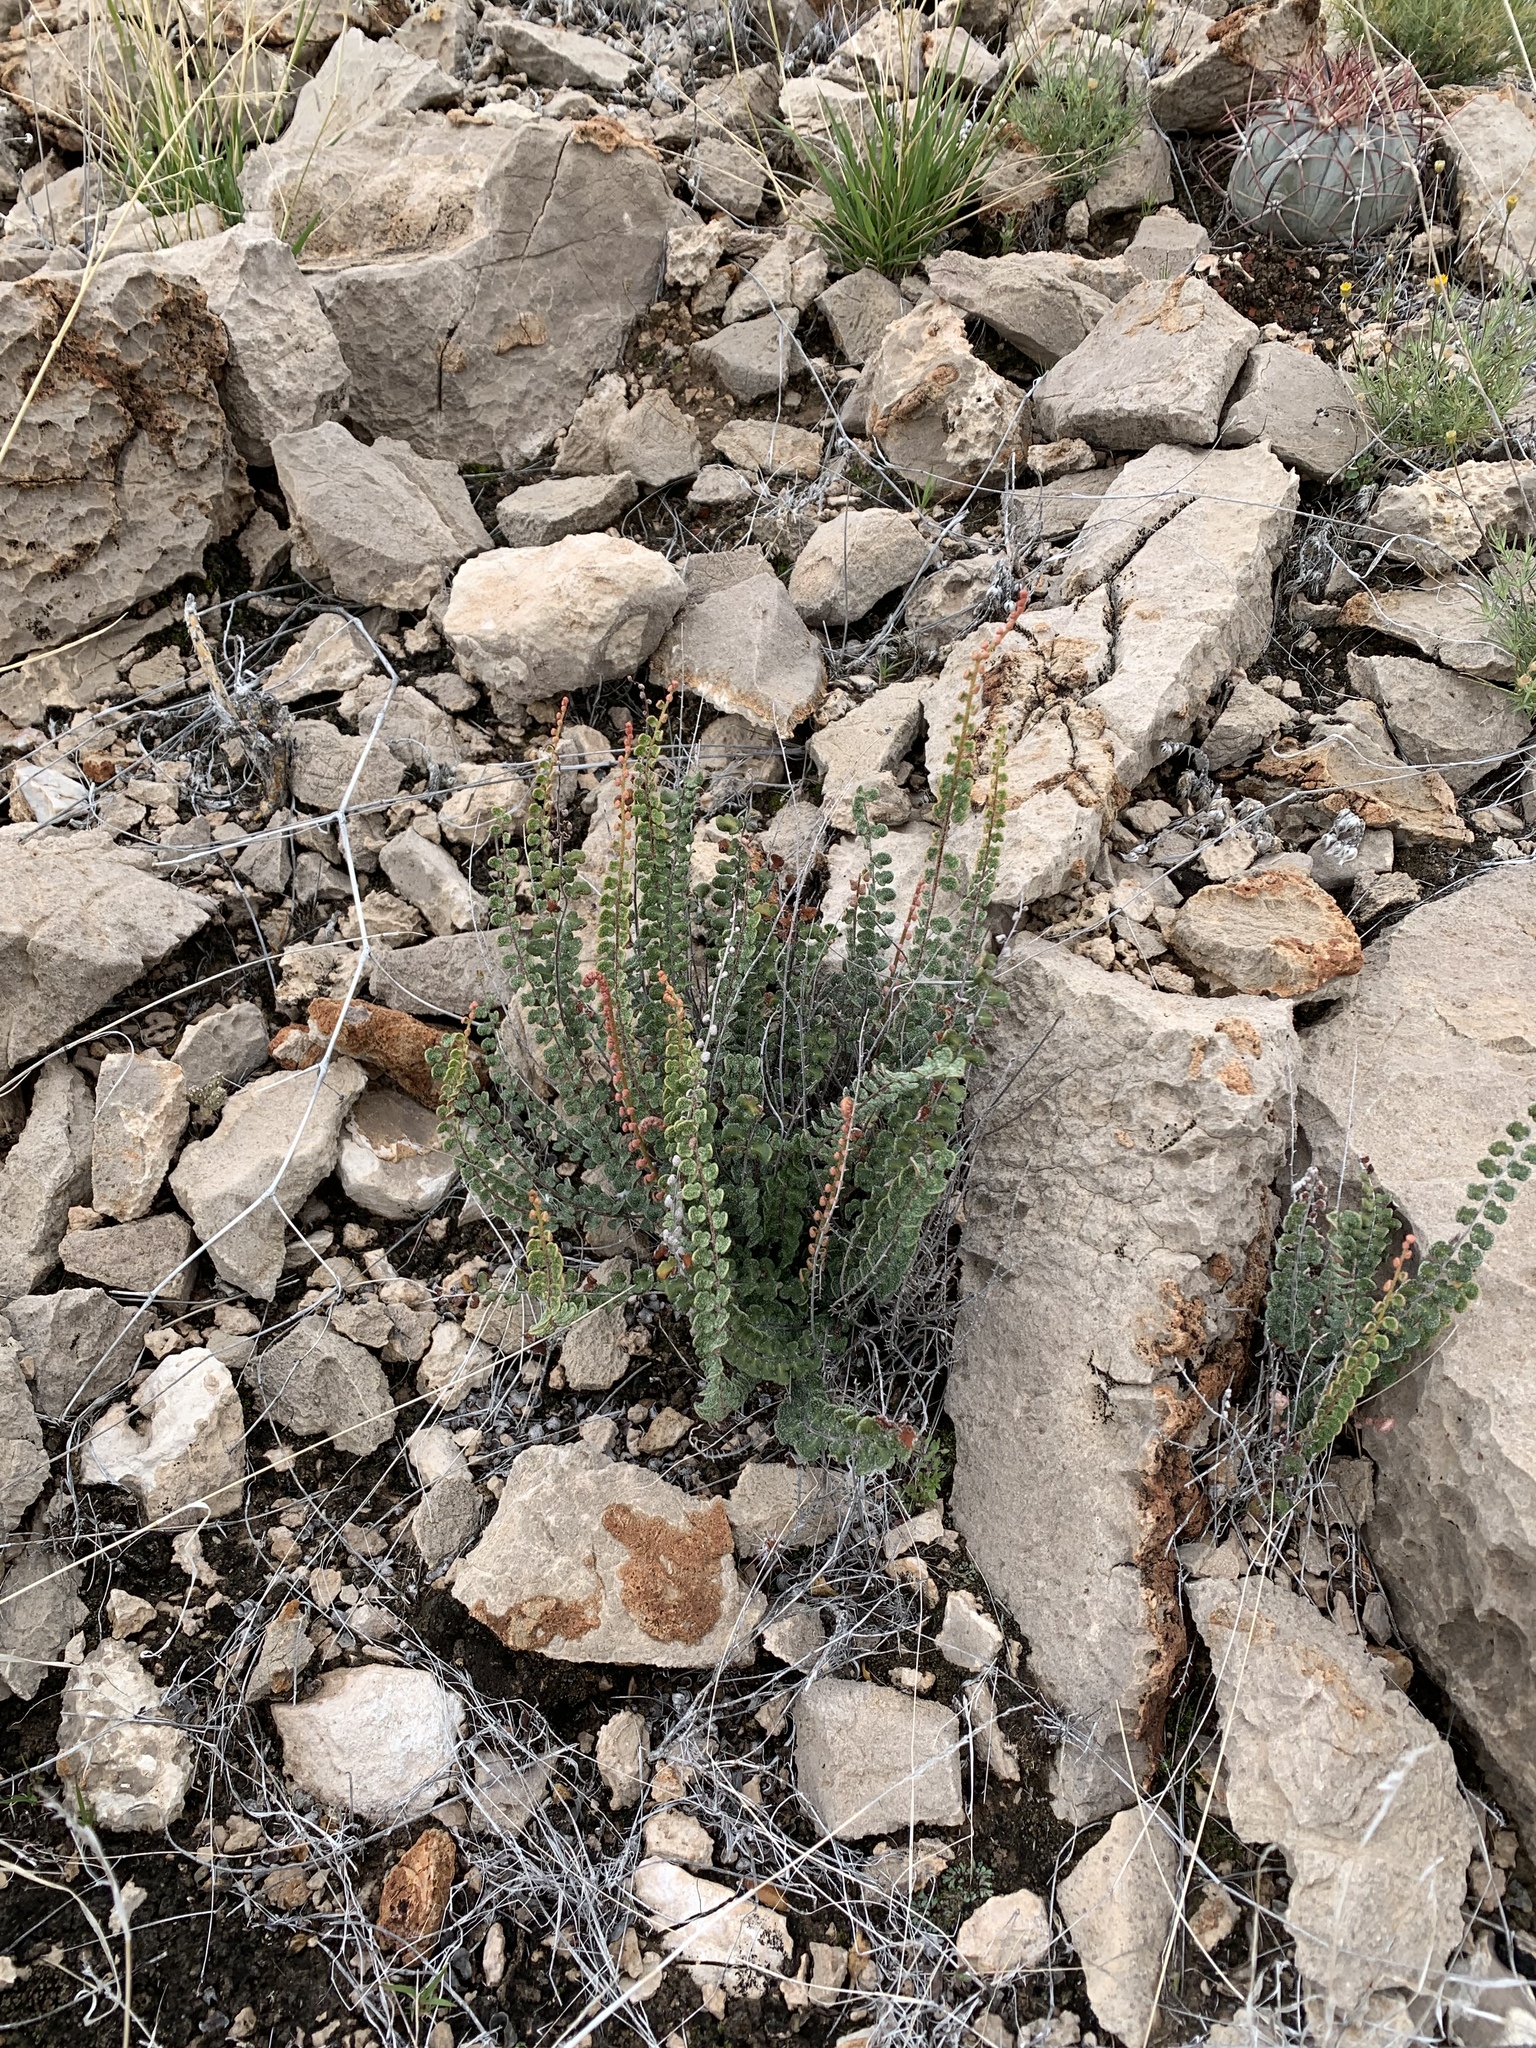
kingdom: Plantae
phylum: Tracheophyta
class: Polypodiopsida
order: Polypodiales
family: Pteridaceae
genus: Astrolepis
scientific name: Astrolepis cochisensis
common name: Scaly cloak fern
